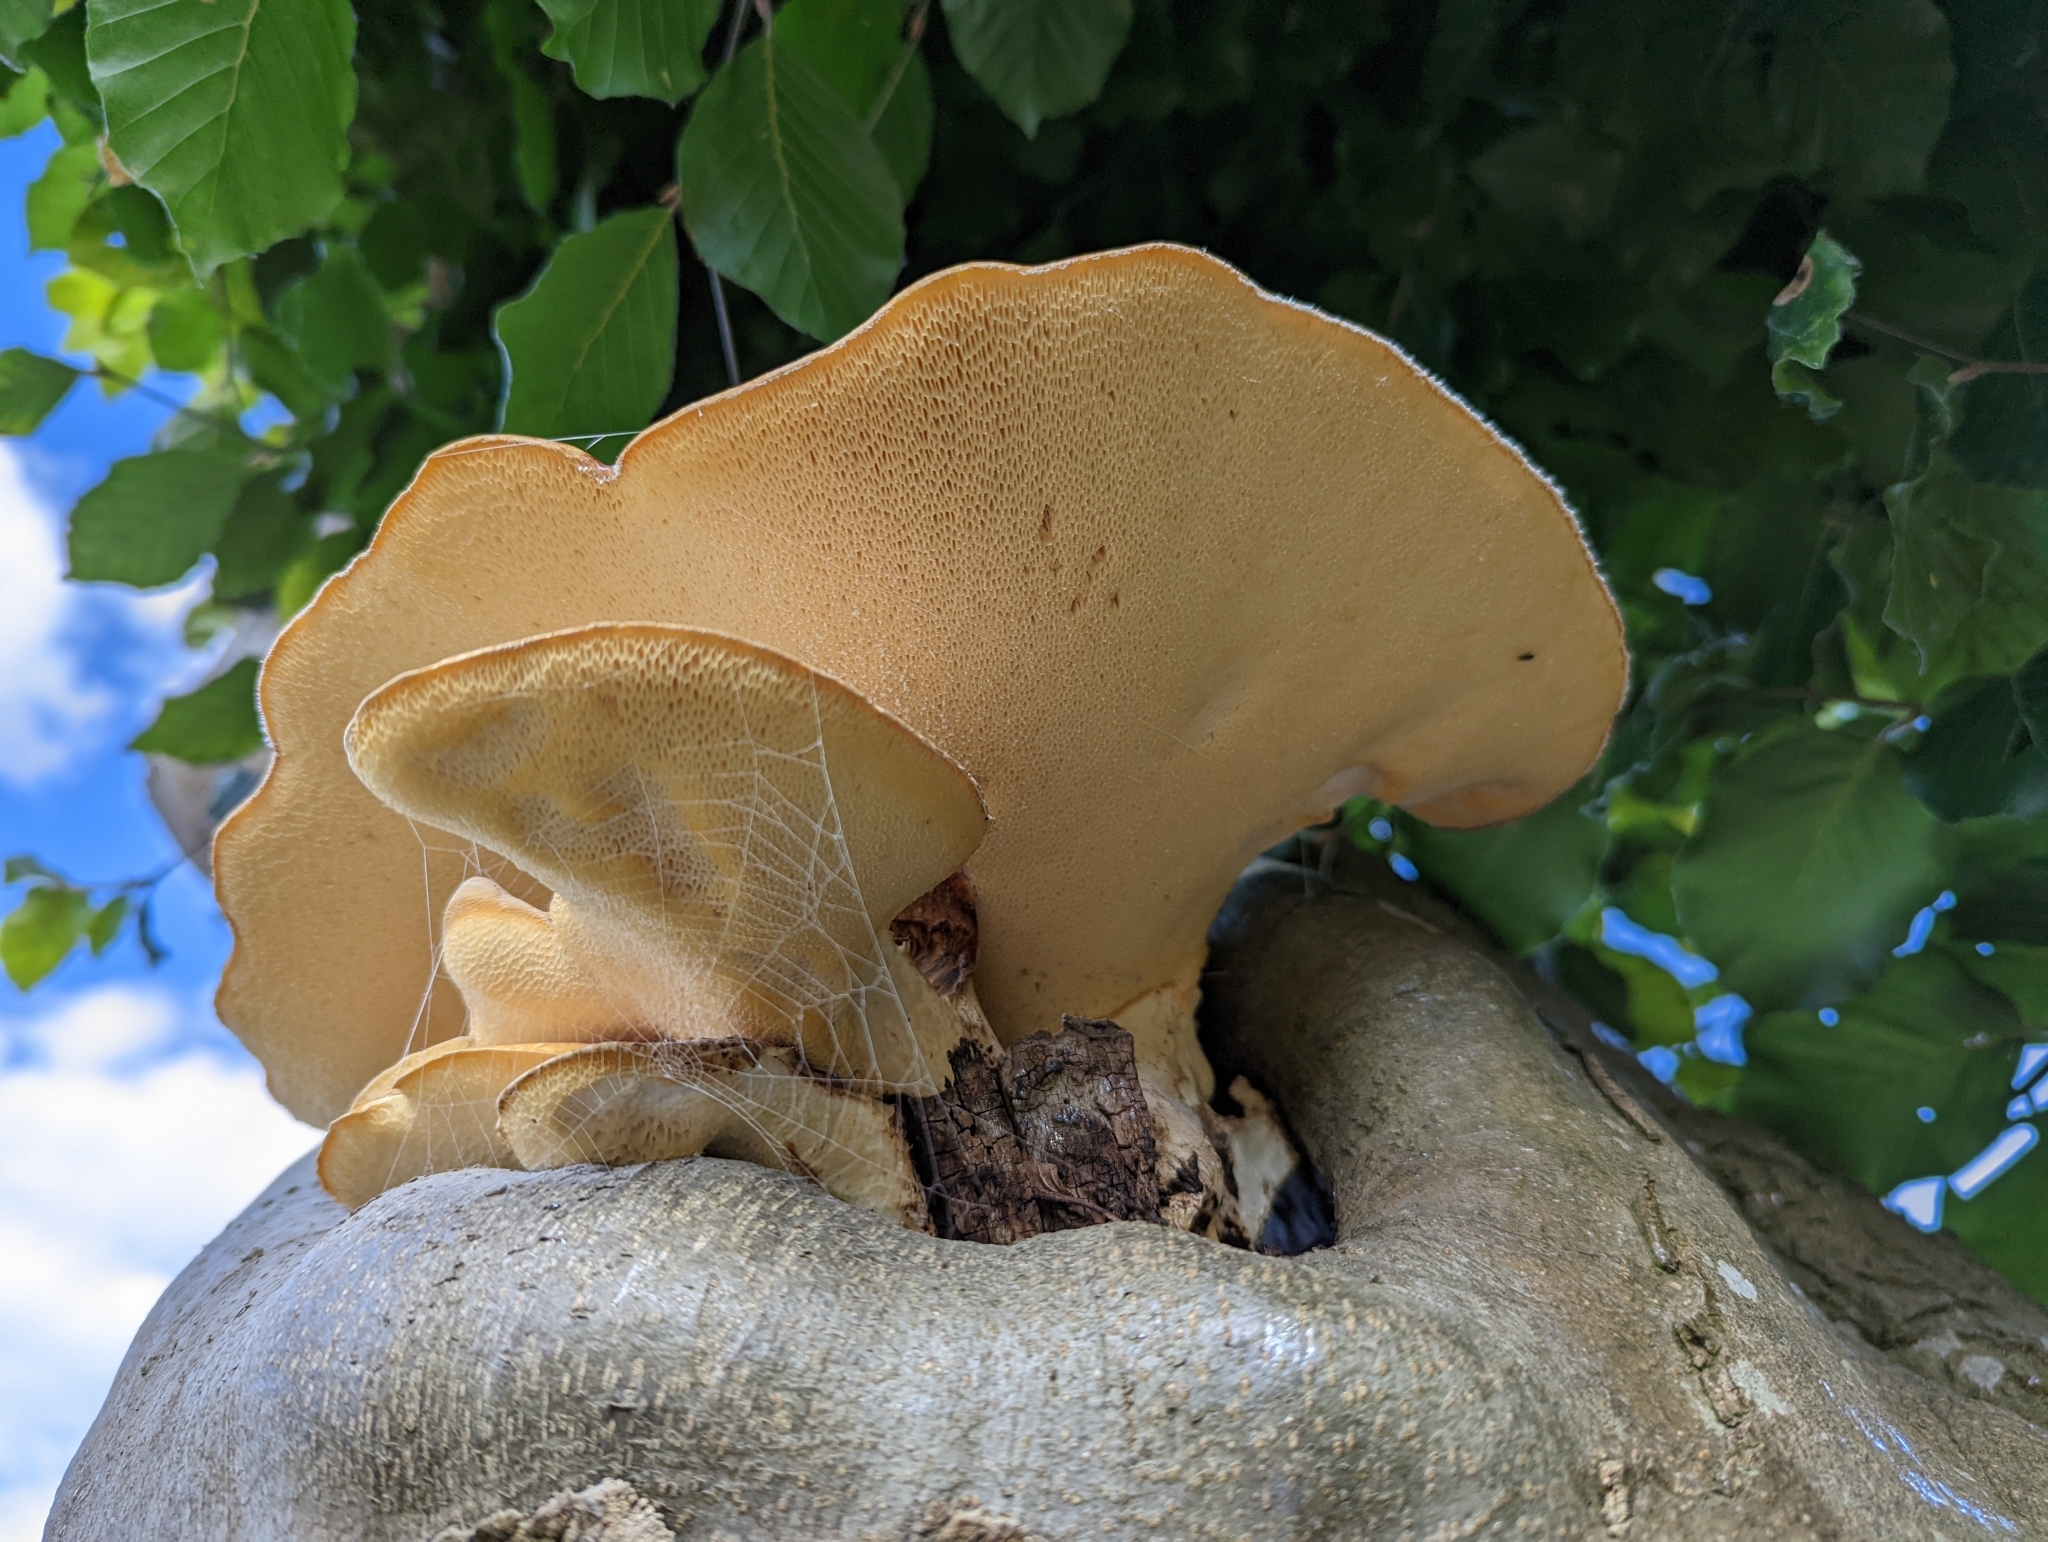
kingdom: Fungi
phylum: Basidiomycota
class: Agaricomycetes
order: Polyporales
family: Polyporaceae
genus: Cerioporus
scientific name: Cerioporus squamosus
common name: Dryad's saddle
